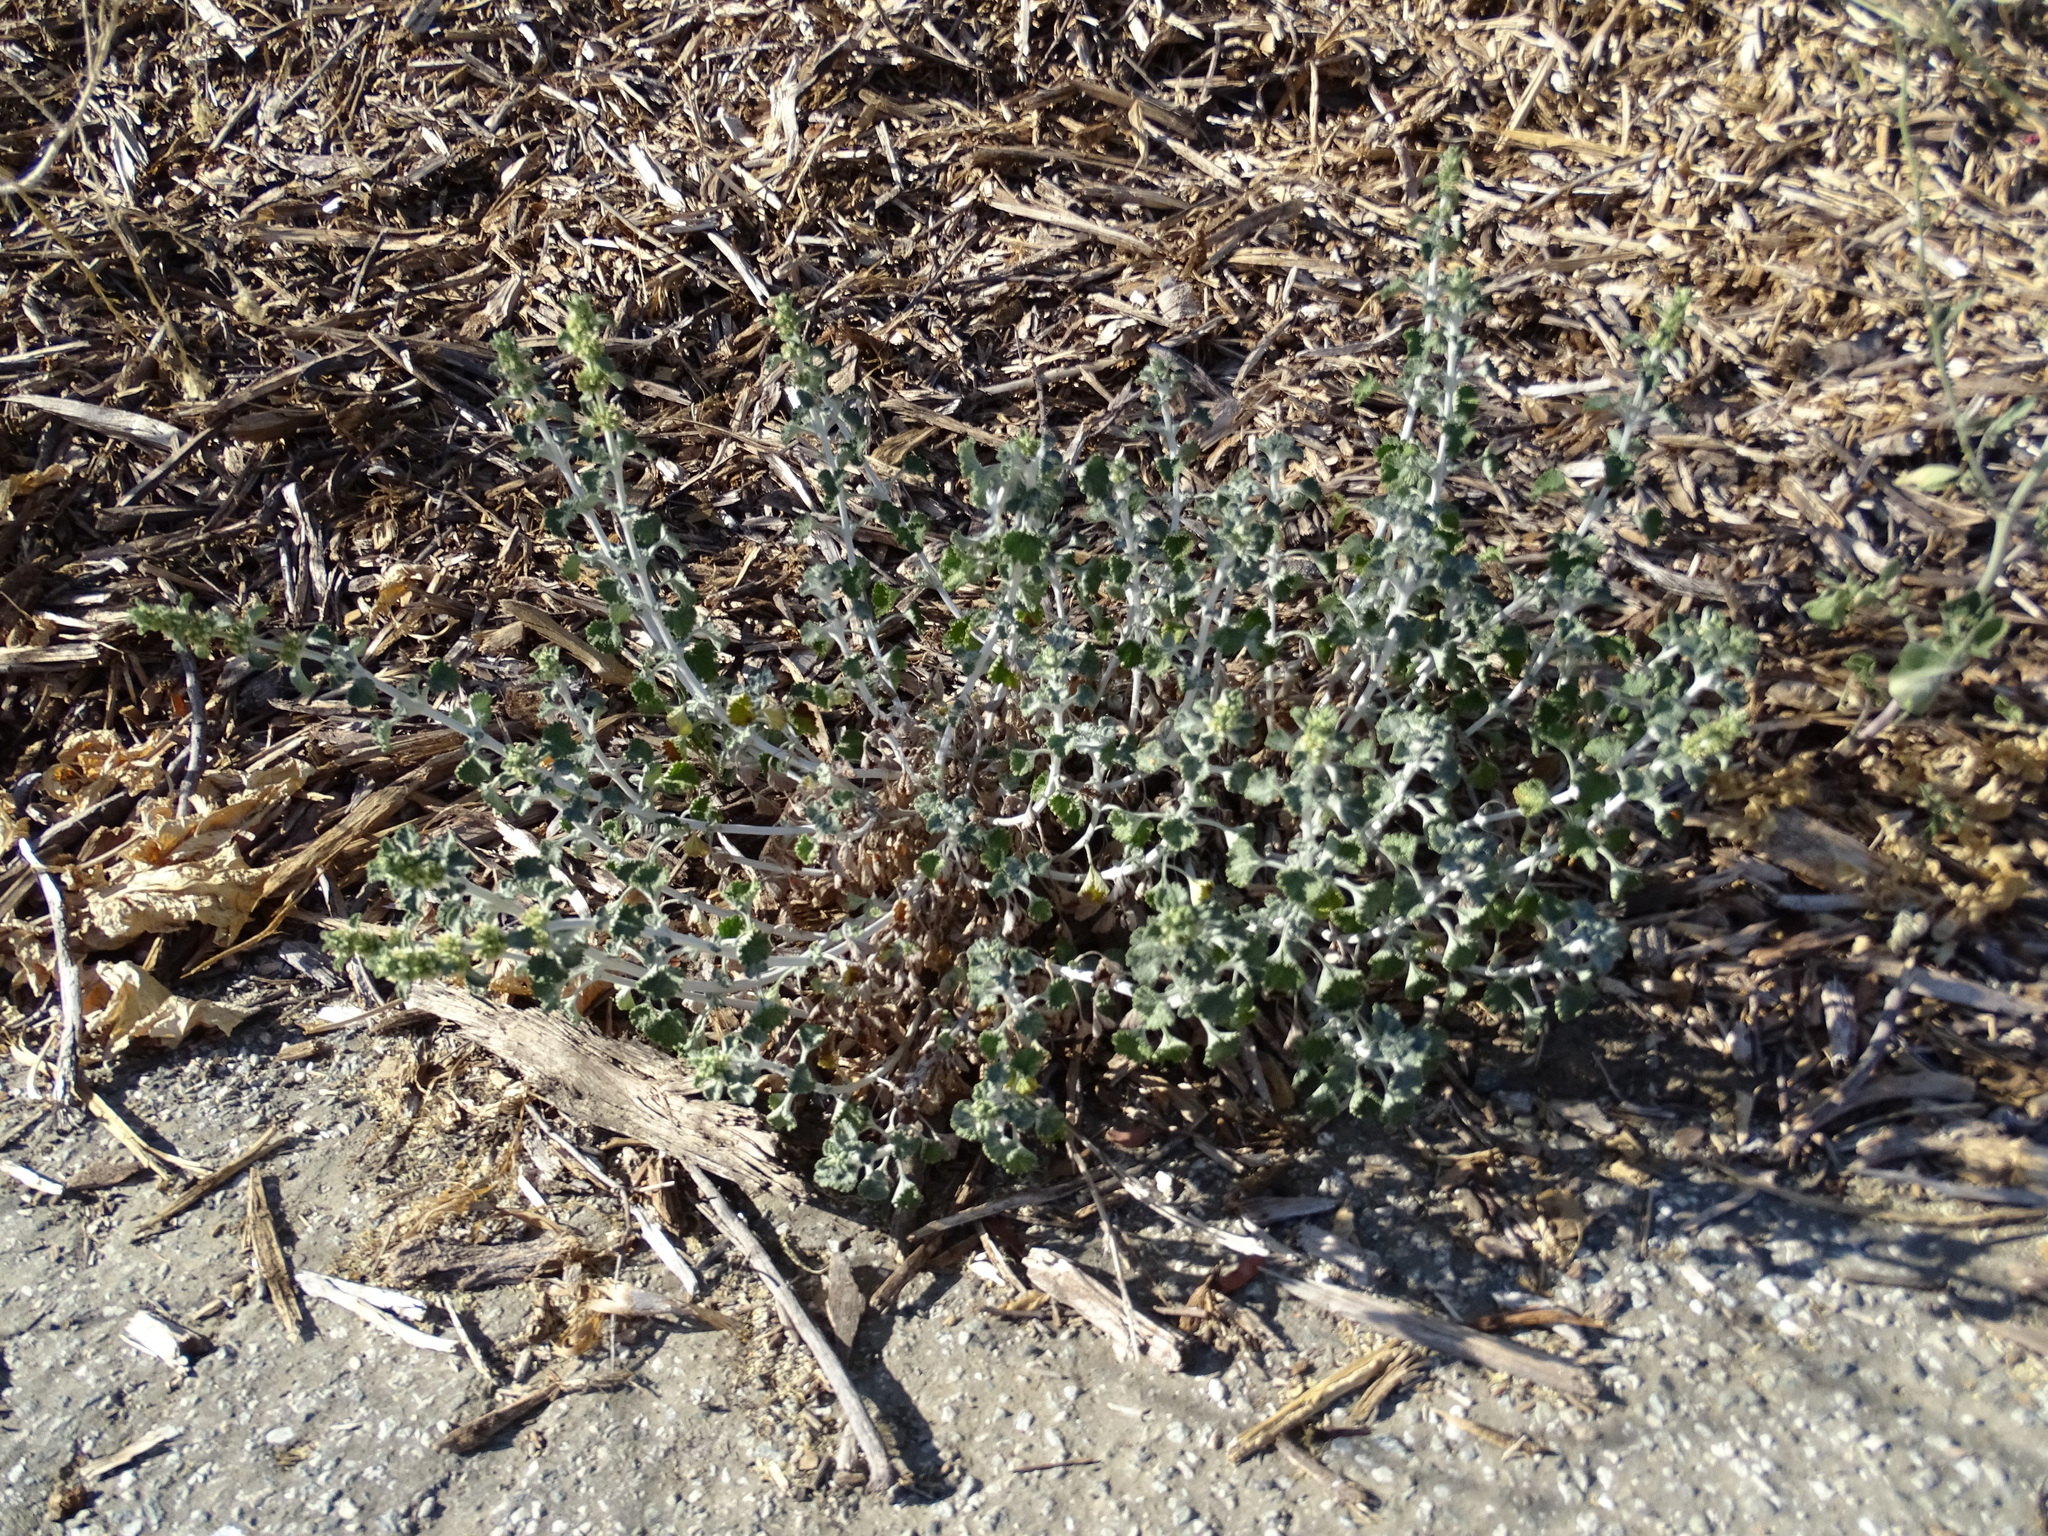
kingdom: Plantae
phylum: Tracheophyta
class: Magnoliopsida
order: Lamiales
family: Lamiaceae
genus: Marrubium
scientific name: Marrubium vulgare
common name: Horehound
